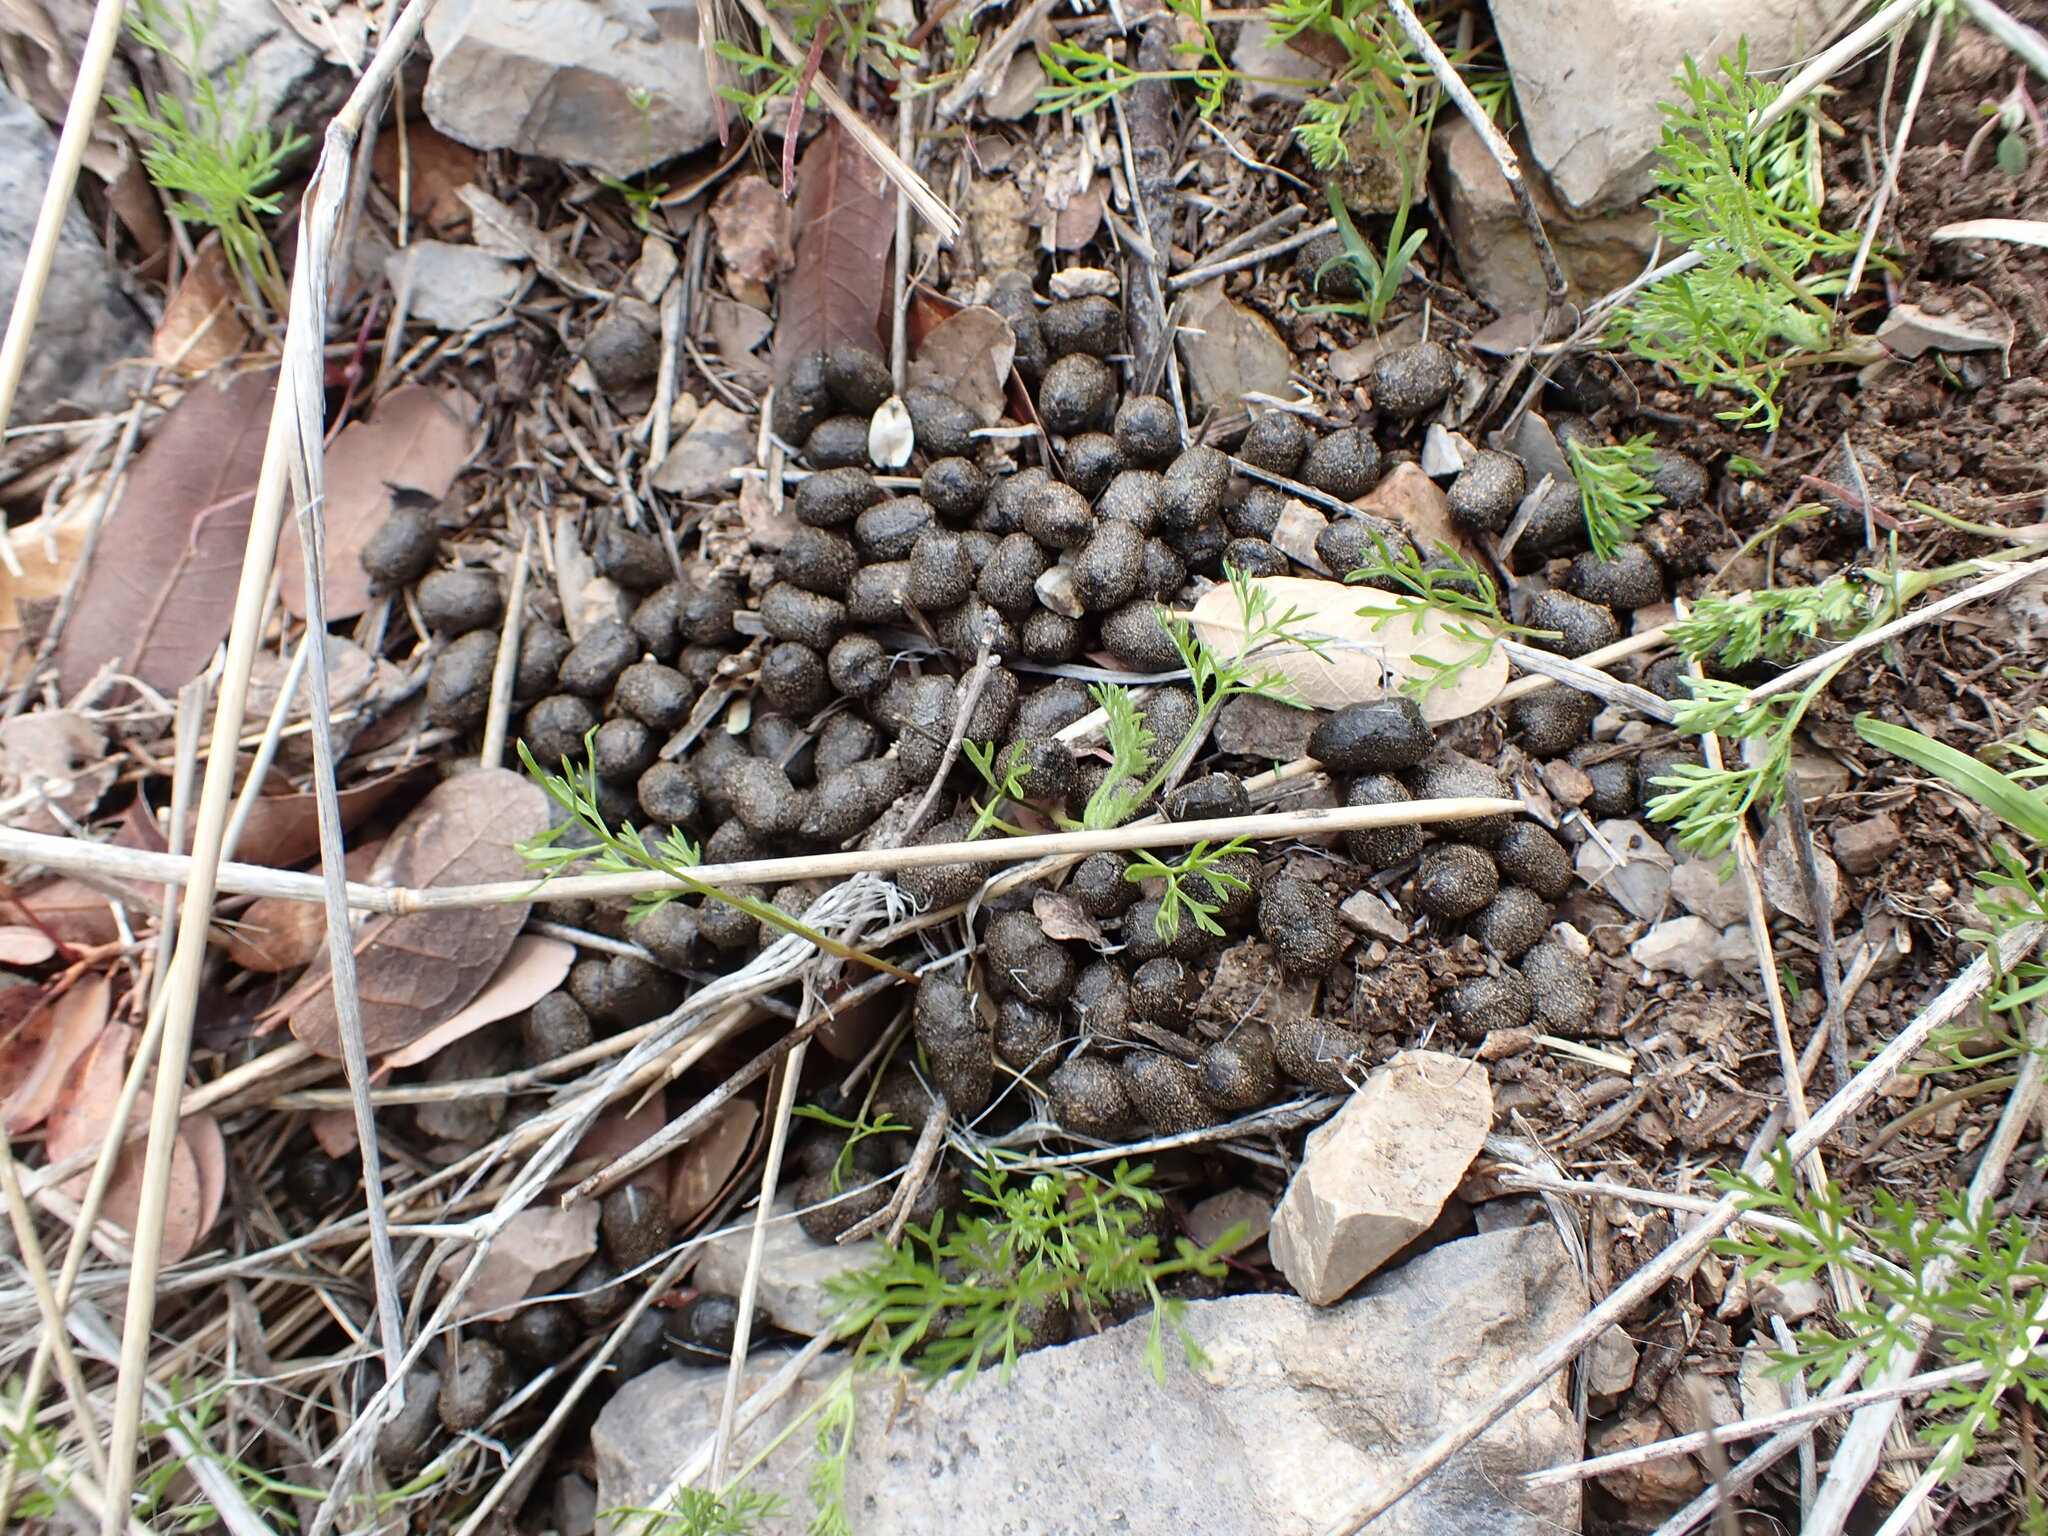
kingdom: Animalia
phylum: Chordata
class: Mammalia
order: Artiodactyla
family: Cervidae
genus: Odocoileus
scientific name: Odocoileus virginianus
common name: White-tailed deer
